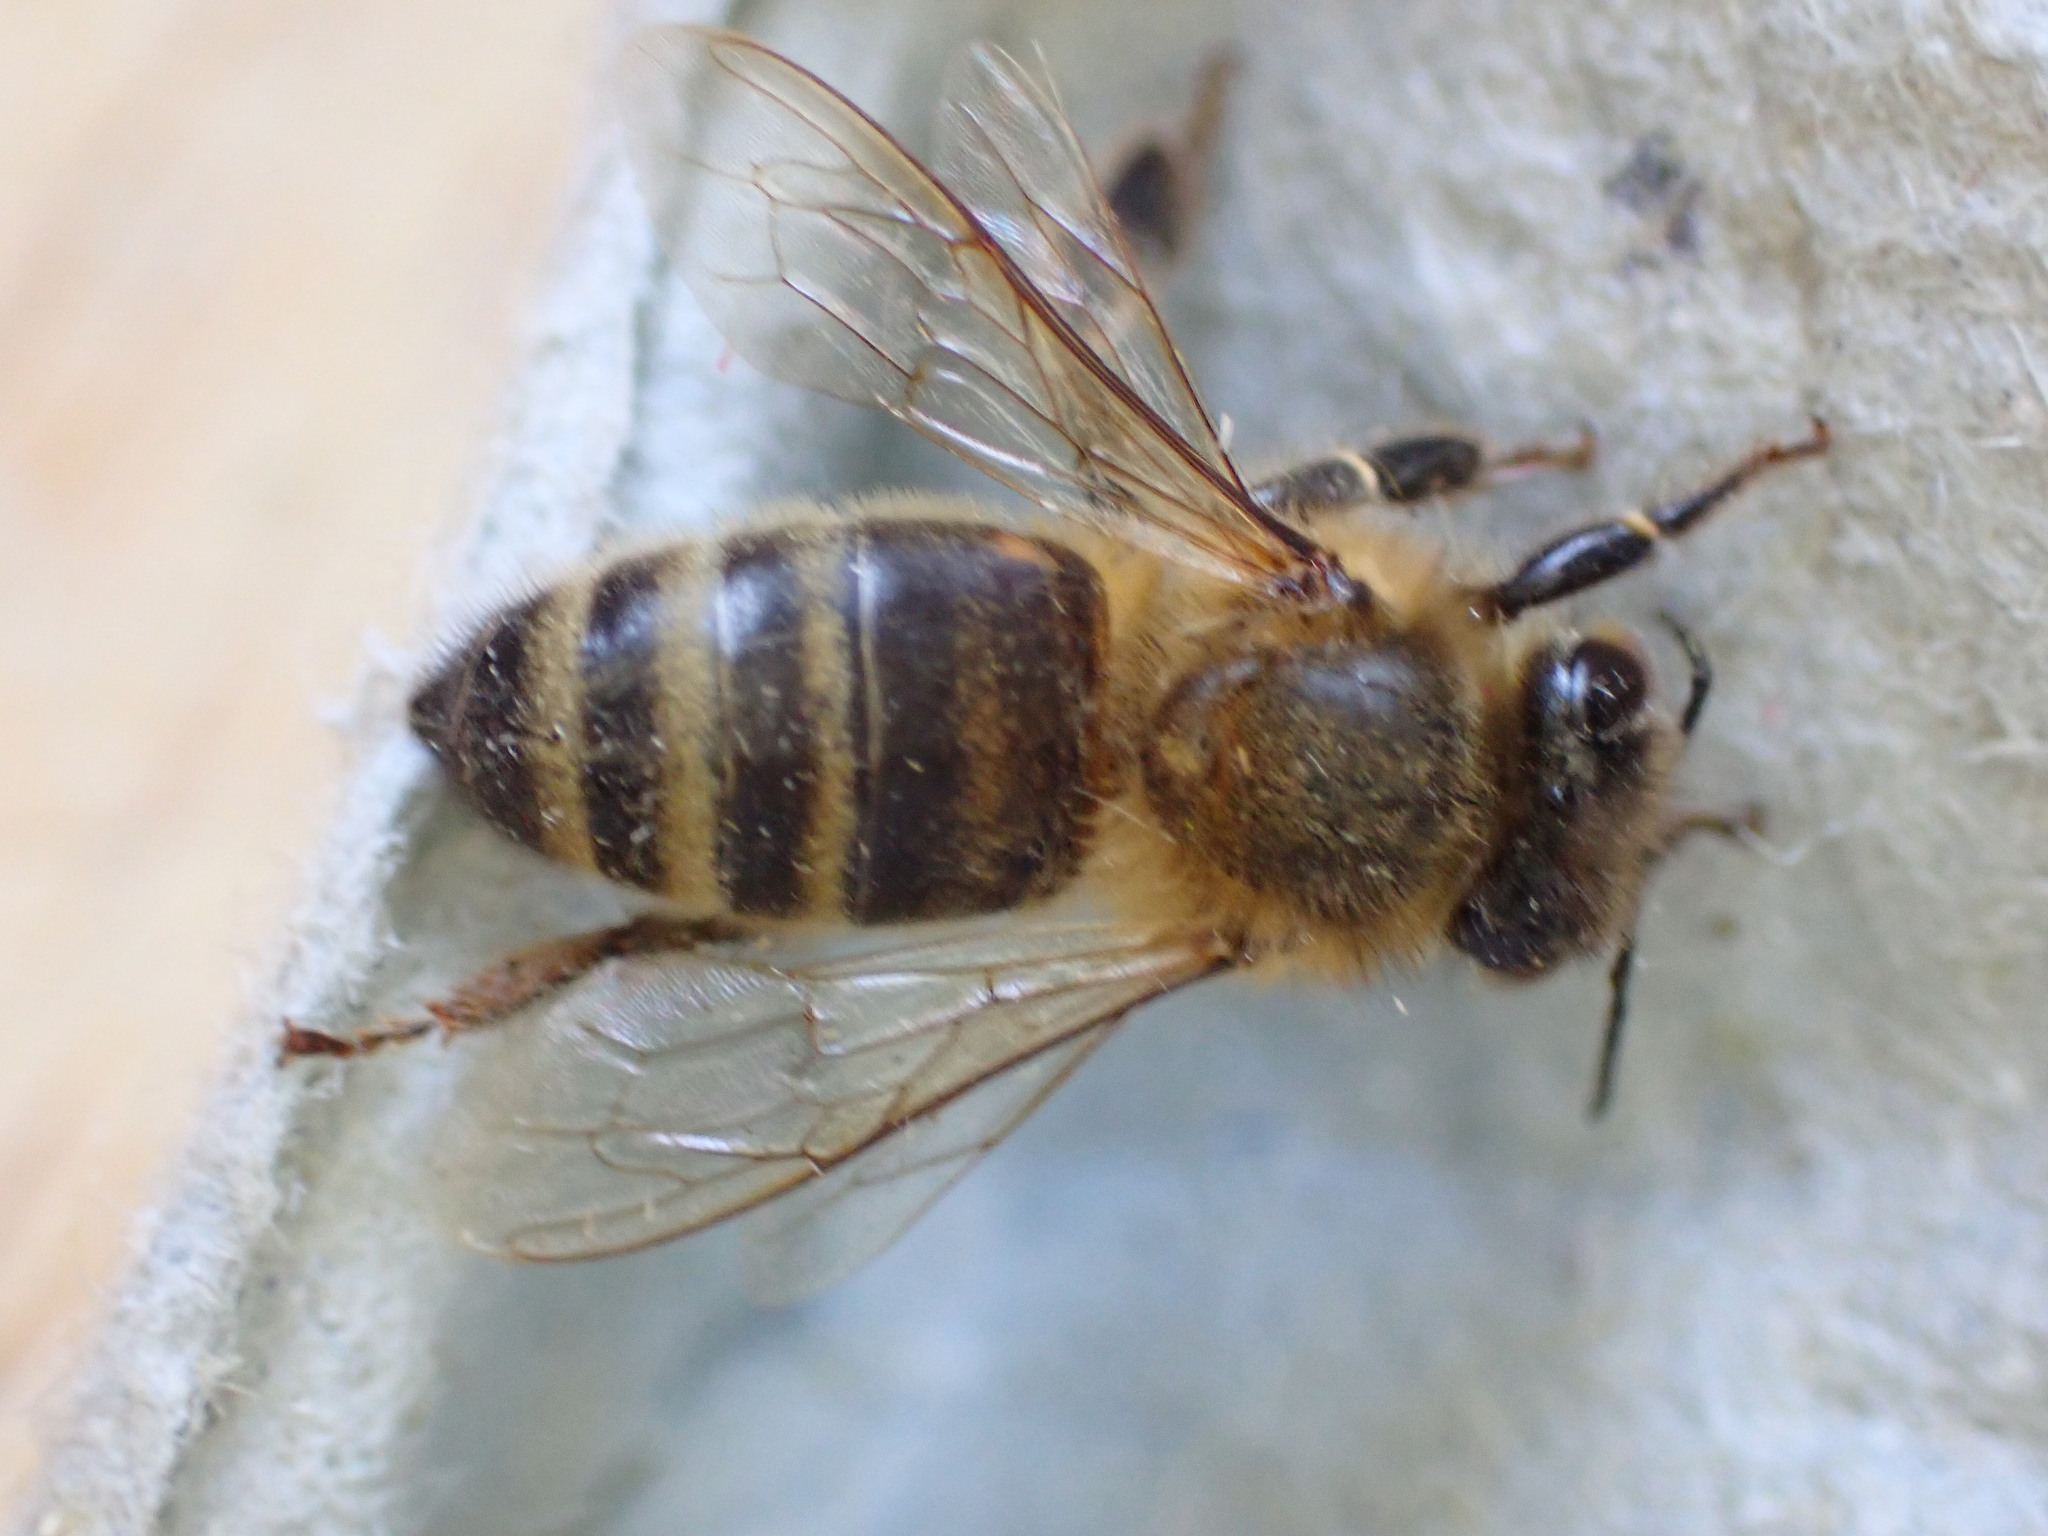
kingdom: Animalia
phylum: Arthropoda
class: Insecta
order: Hymenoptera
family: Apidae
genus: Apis
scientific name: Apis mellifera
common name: Honey bee
